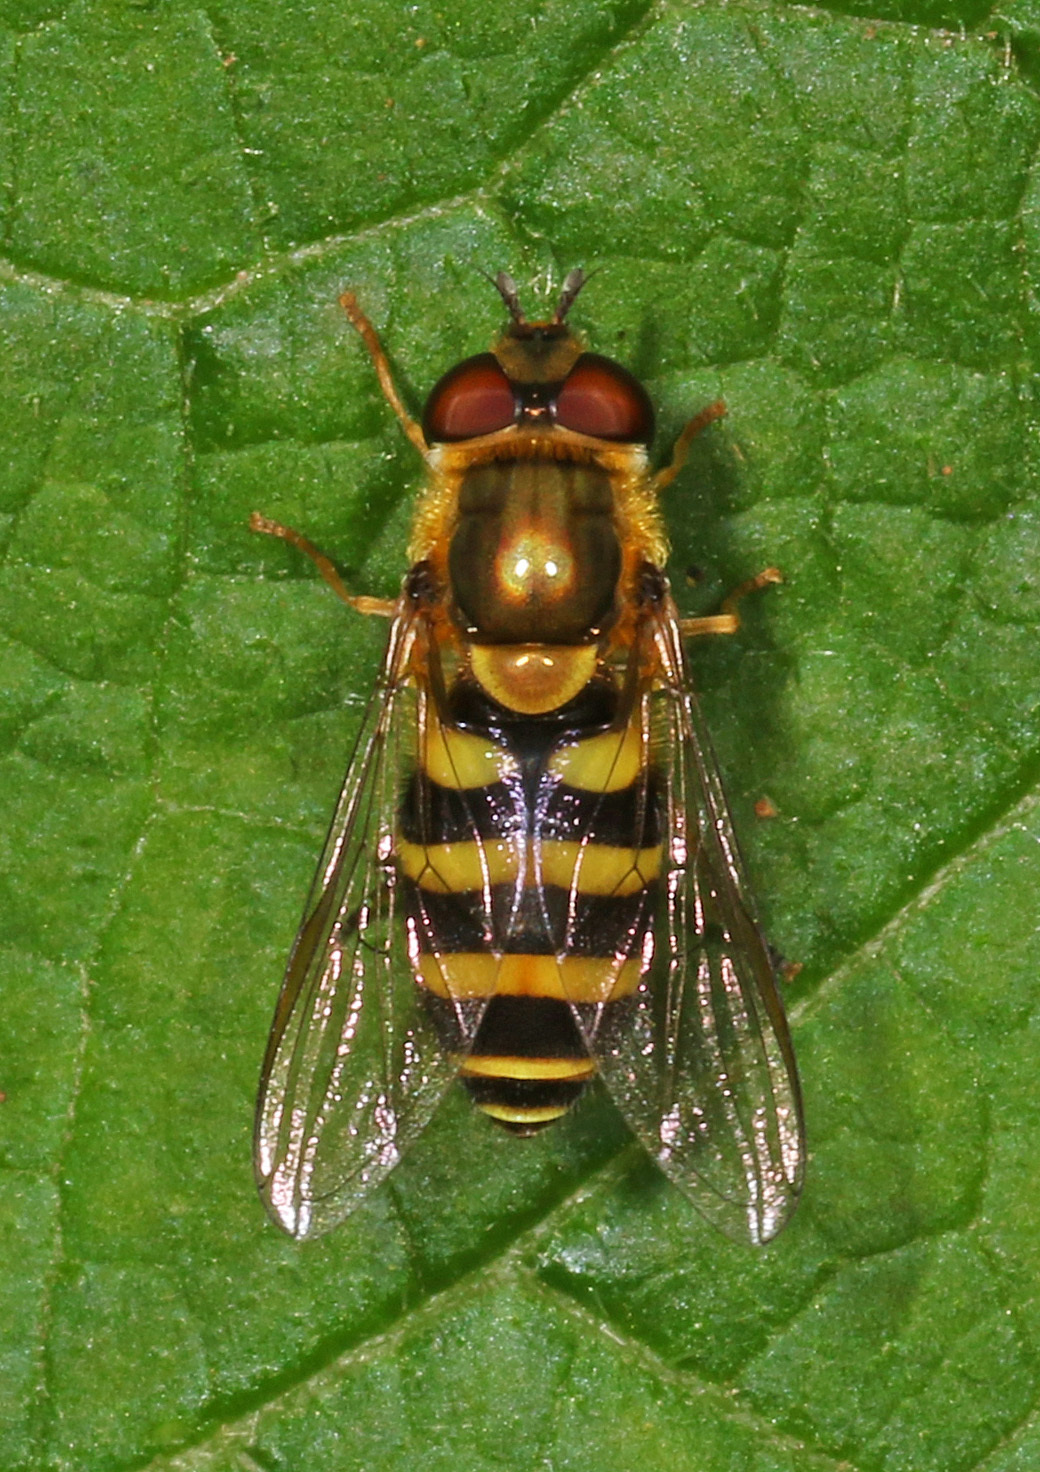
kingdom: Animalia
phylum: Arthropoda
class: Insecta
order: Diptera
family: Syrphidae
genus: Syrphus
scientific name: Syrphus
